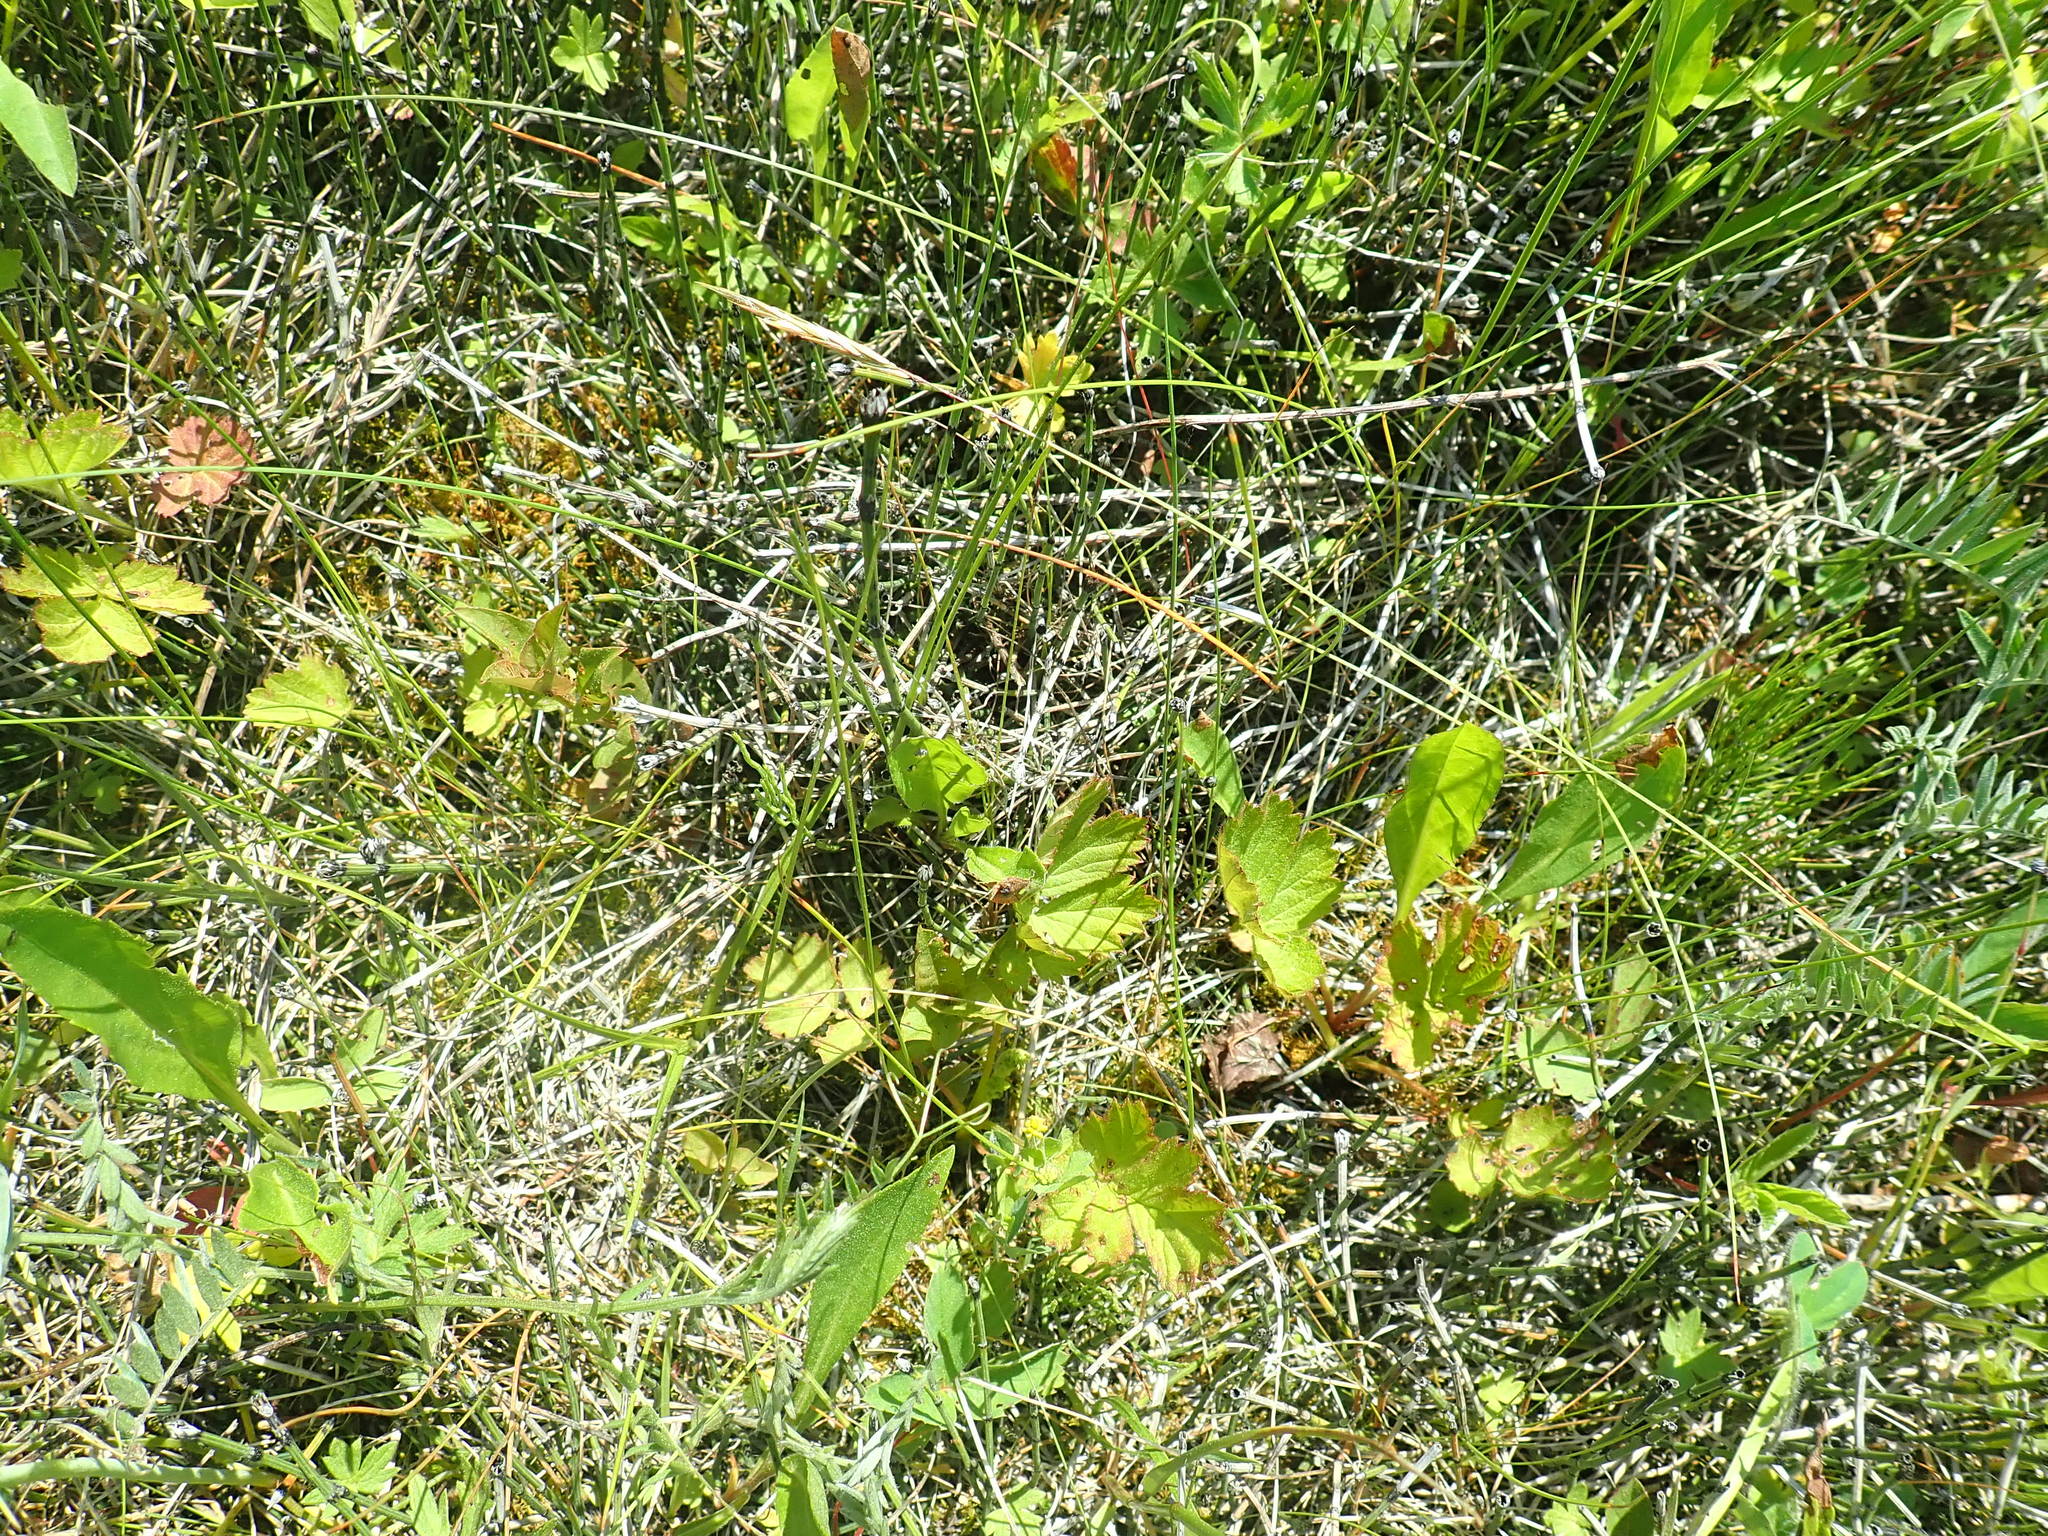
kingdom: Plantae
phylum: Tracheophyta
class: Polypodiopsida
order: Equisetales
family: Equisetaceae
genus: Equisetum
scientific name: Equisetum variegatum
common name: Variegated horsetail
